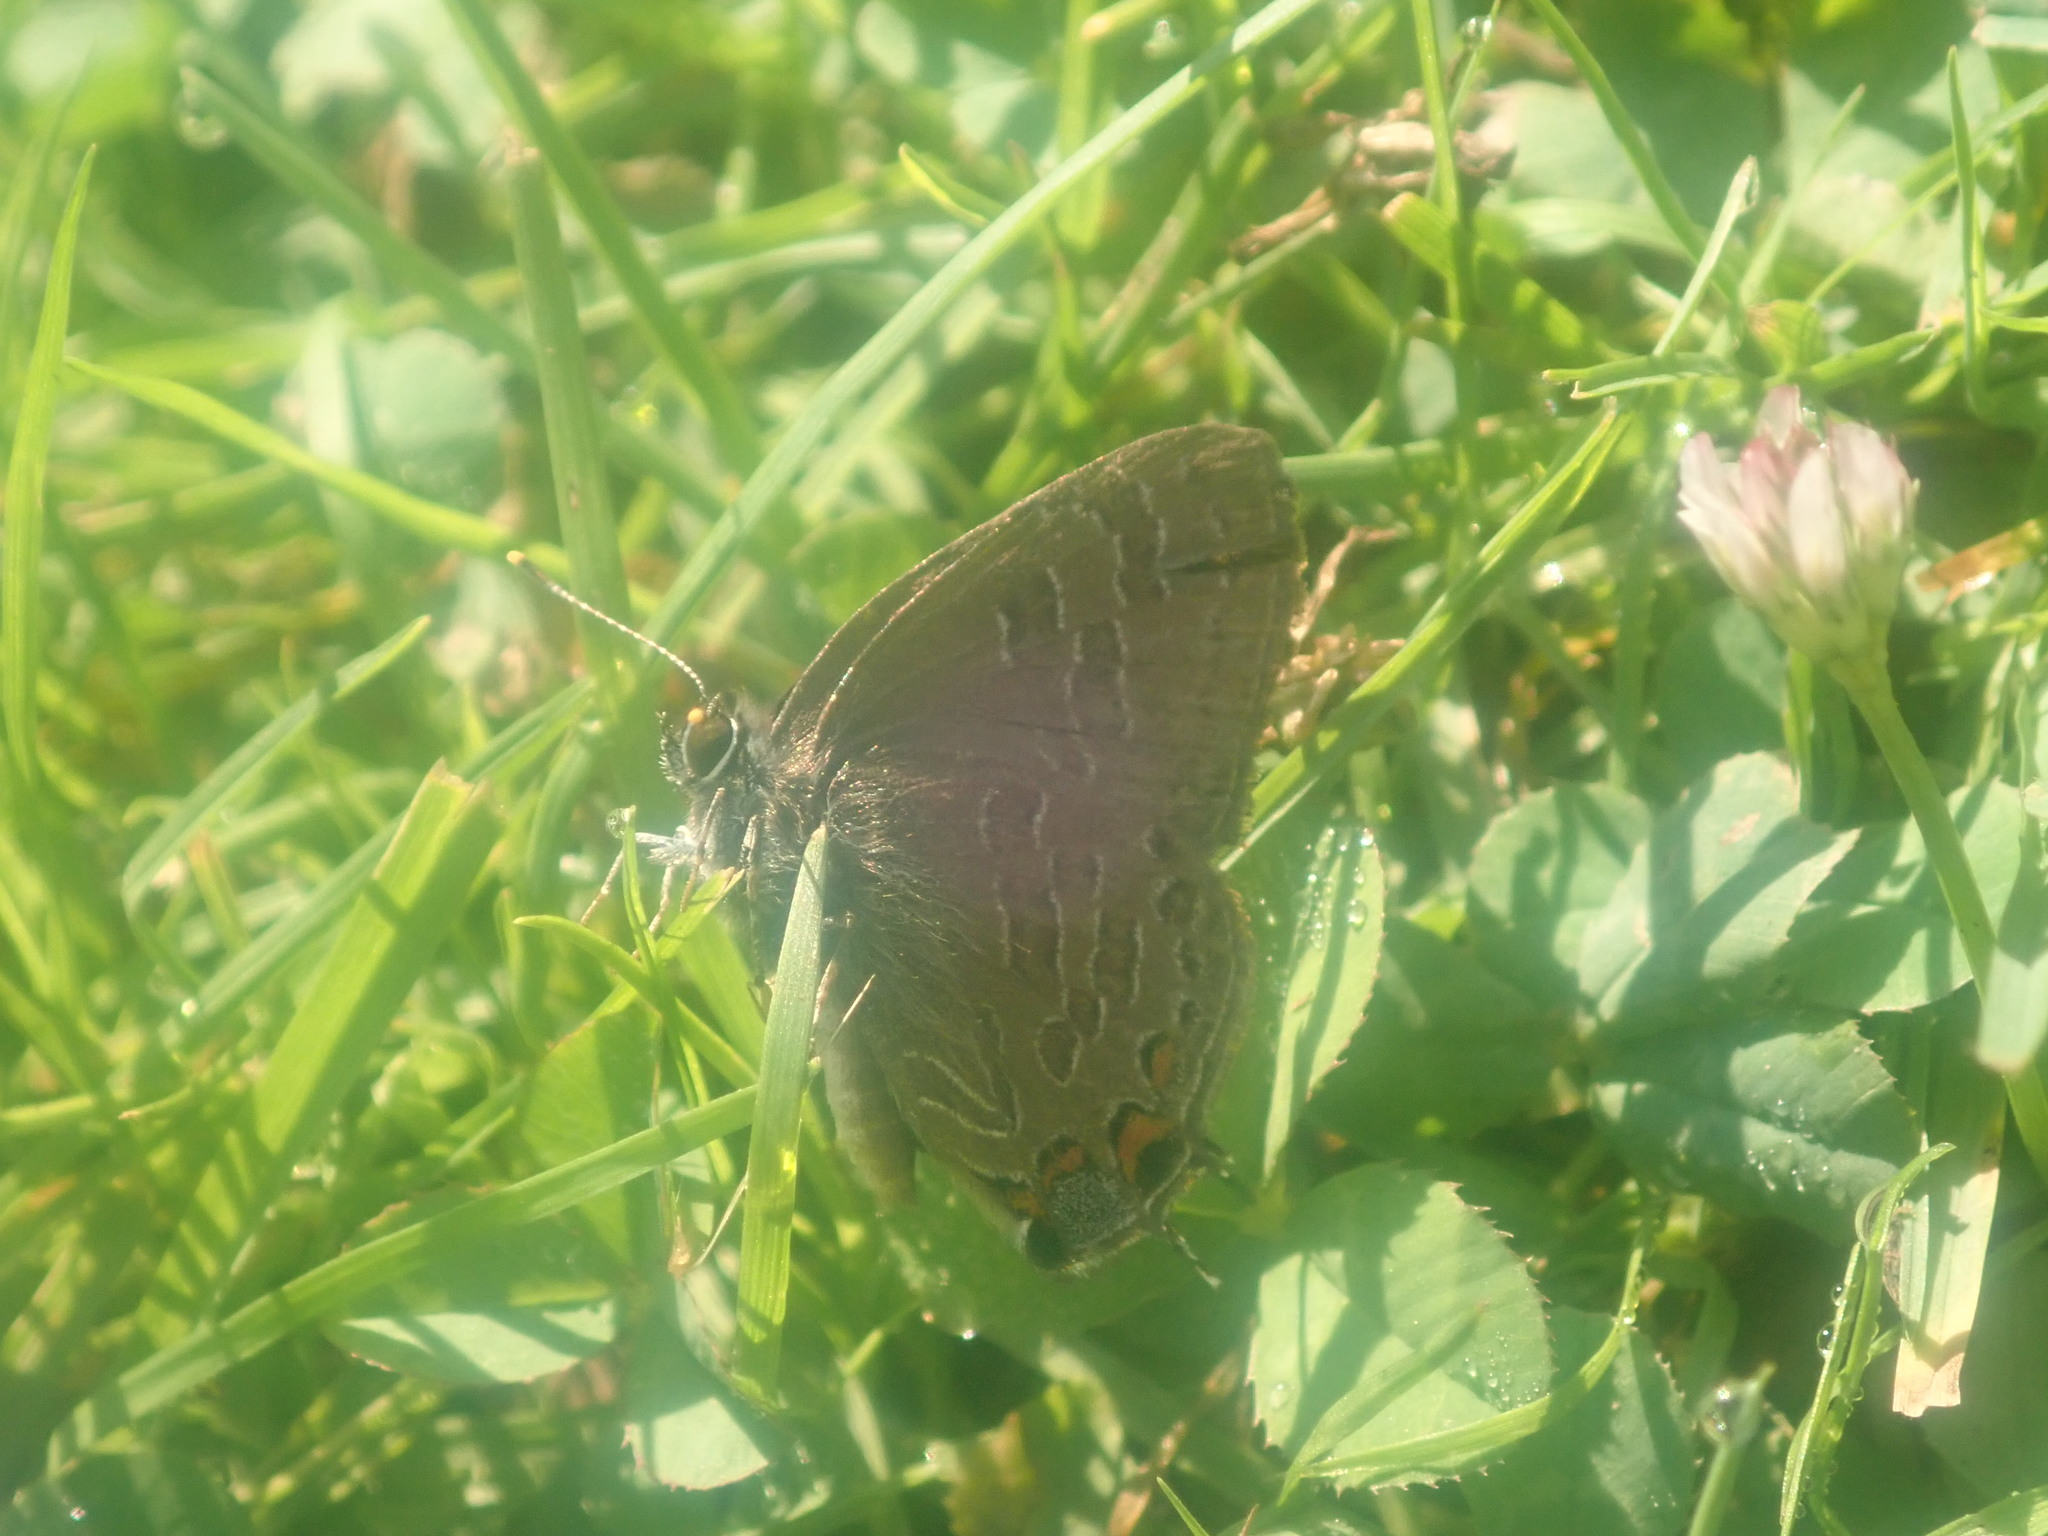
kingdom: Animalia
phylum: Arthropoda
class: Insecta
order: Lepidoptera
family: Lycaenidae
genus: Satyrium
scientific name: Satyrium liparops
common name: Striped hairstreak
